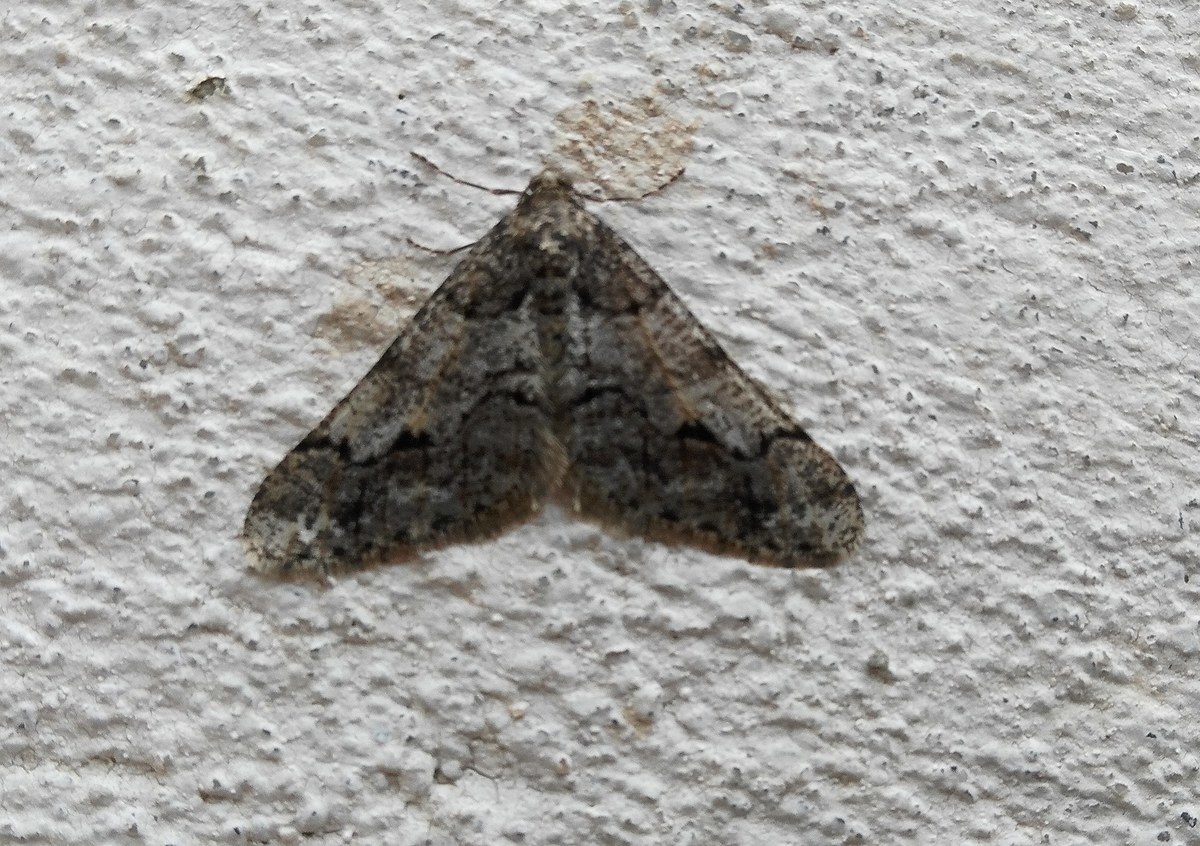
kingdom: Animalia
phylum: Arthropoda
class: Insecta
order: Lepidoptera
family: Geometridae
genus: Agriopis
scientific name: Agriopis leucophaearia
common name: Spring usher
